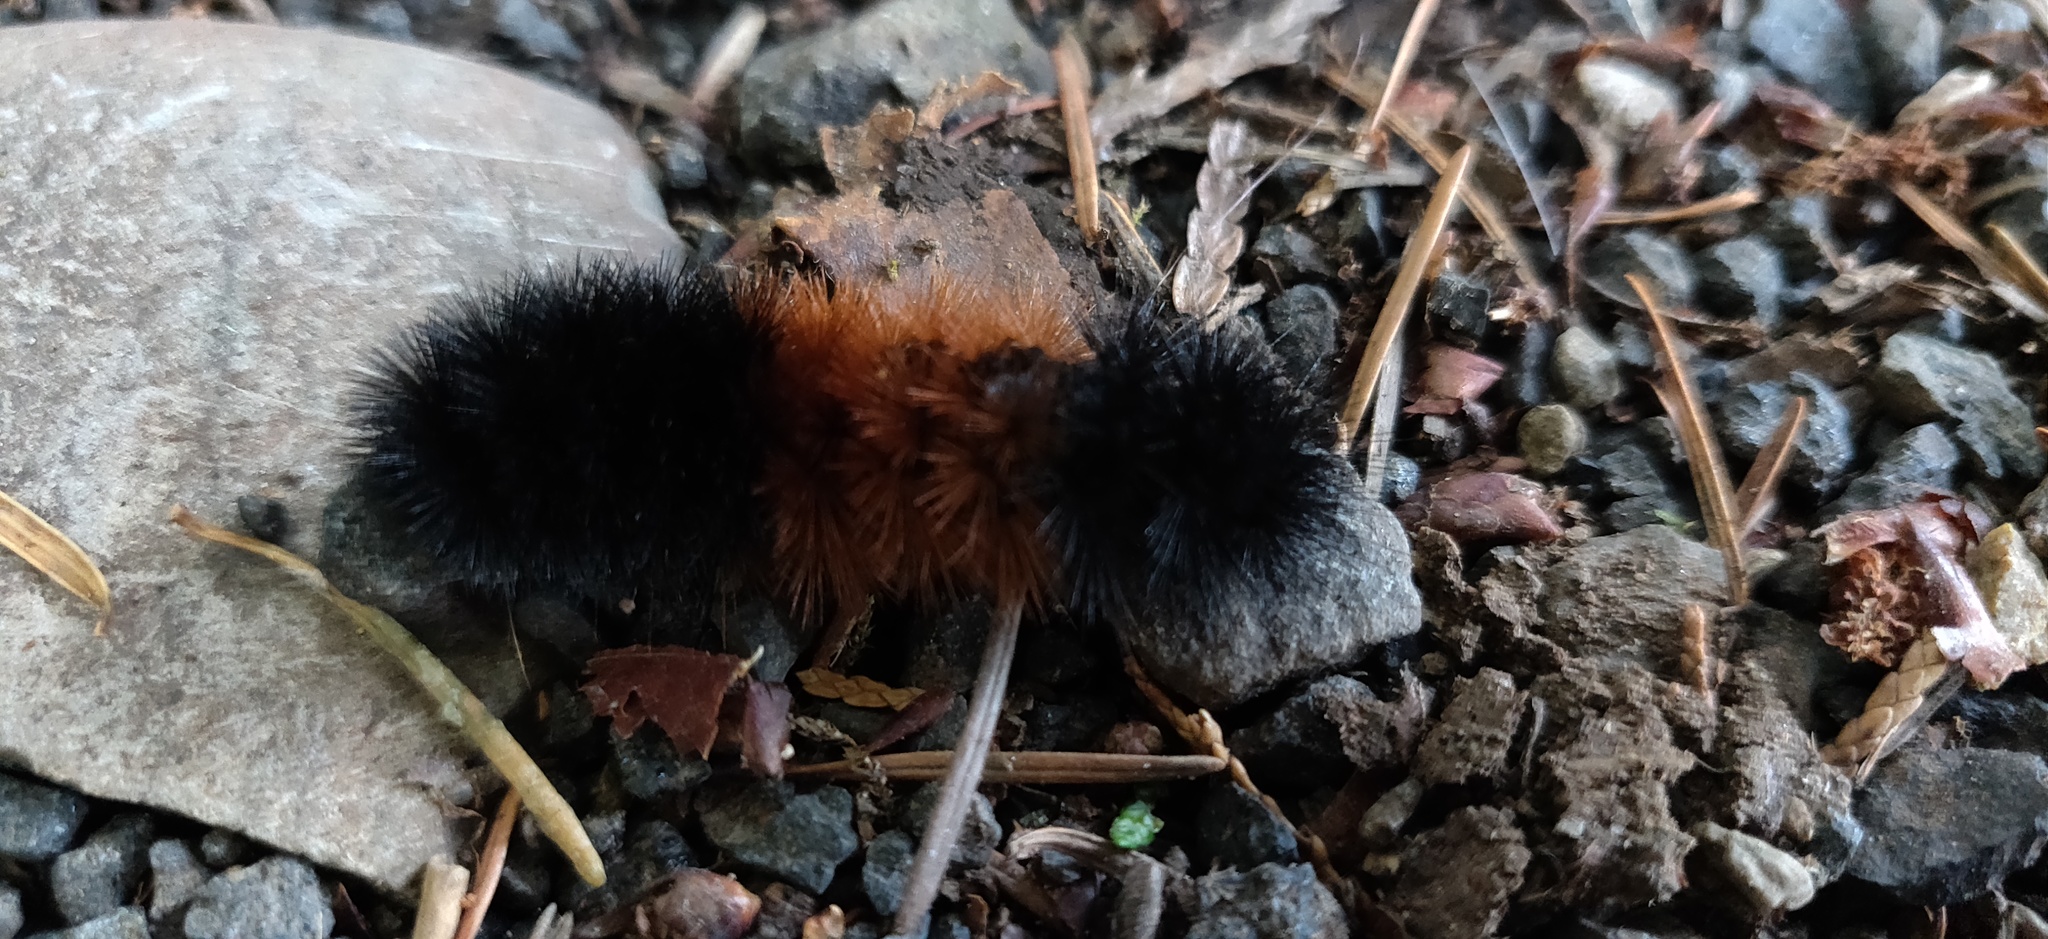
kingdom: Animalia
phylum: Arthropoda
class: Insecta
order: Lepidoptera
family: Erebidae
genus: Pyrrharctia
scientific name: Pyrrharctia isabella
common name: Isabella tiger moth
